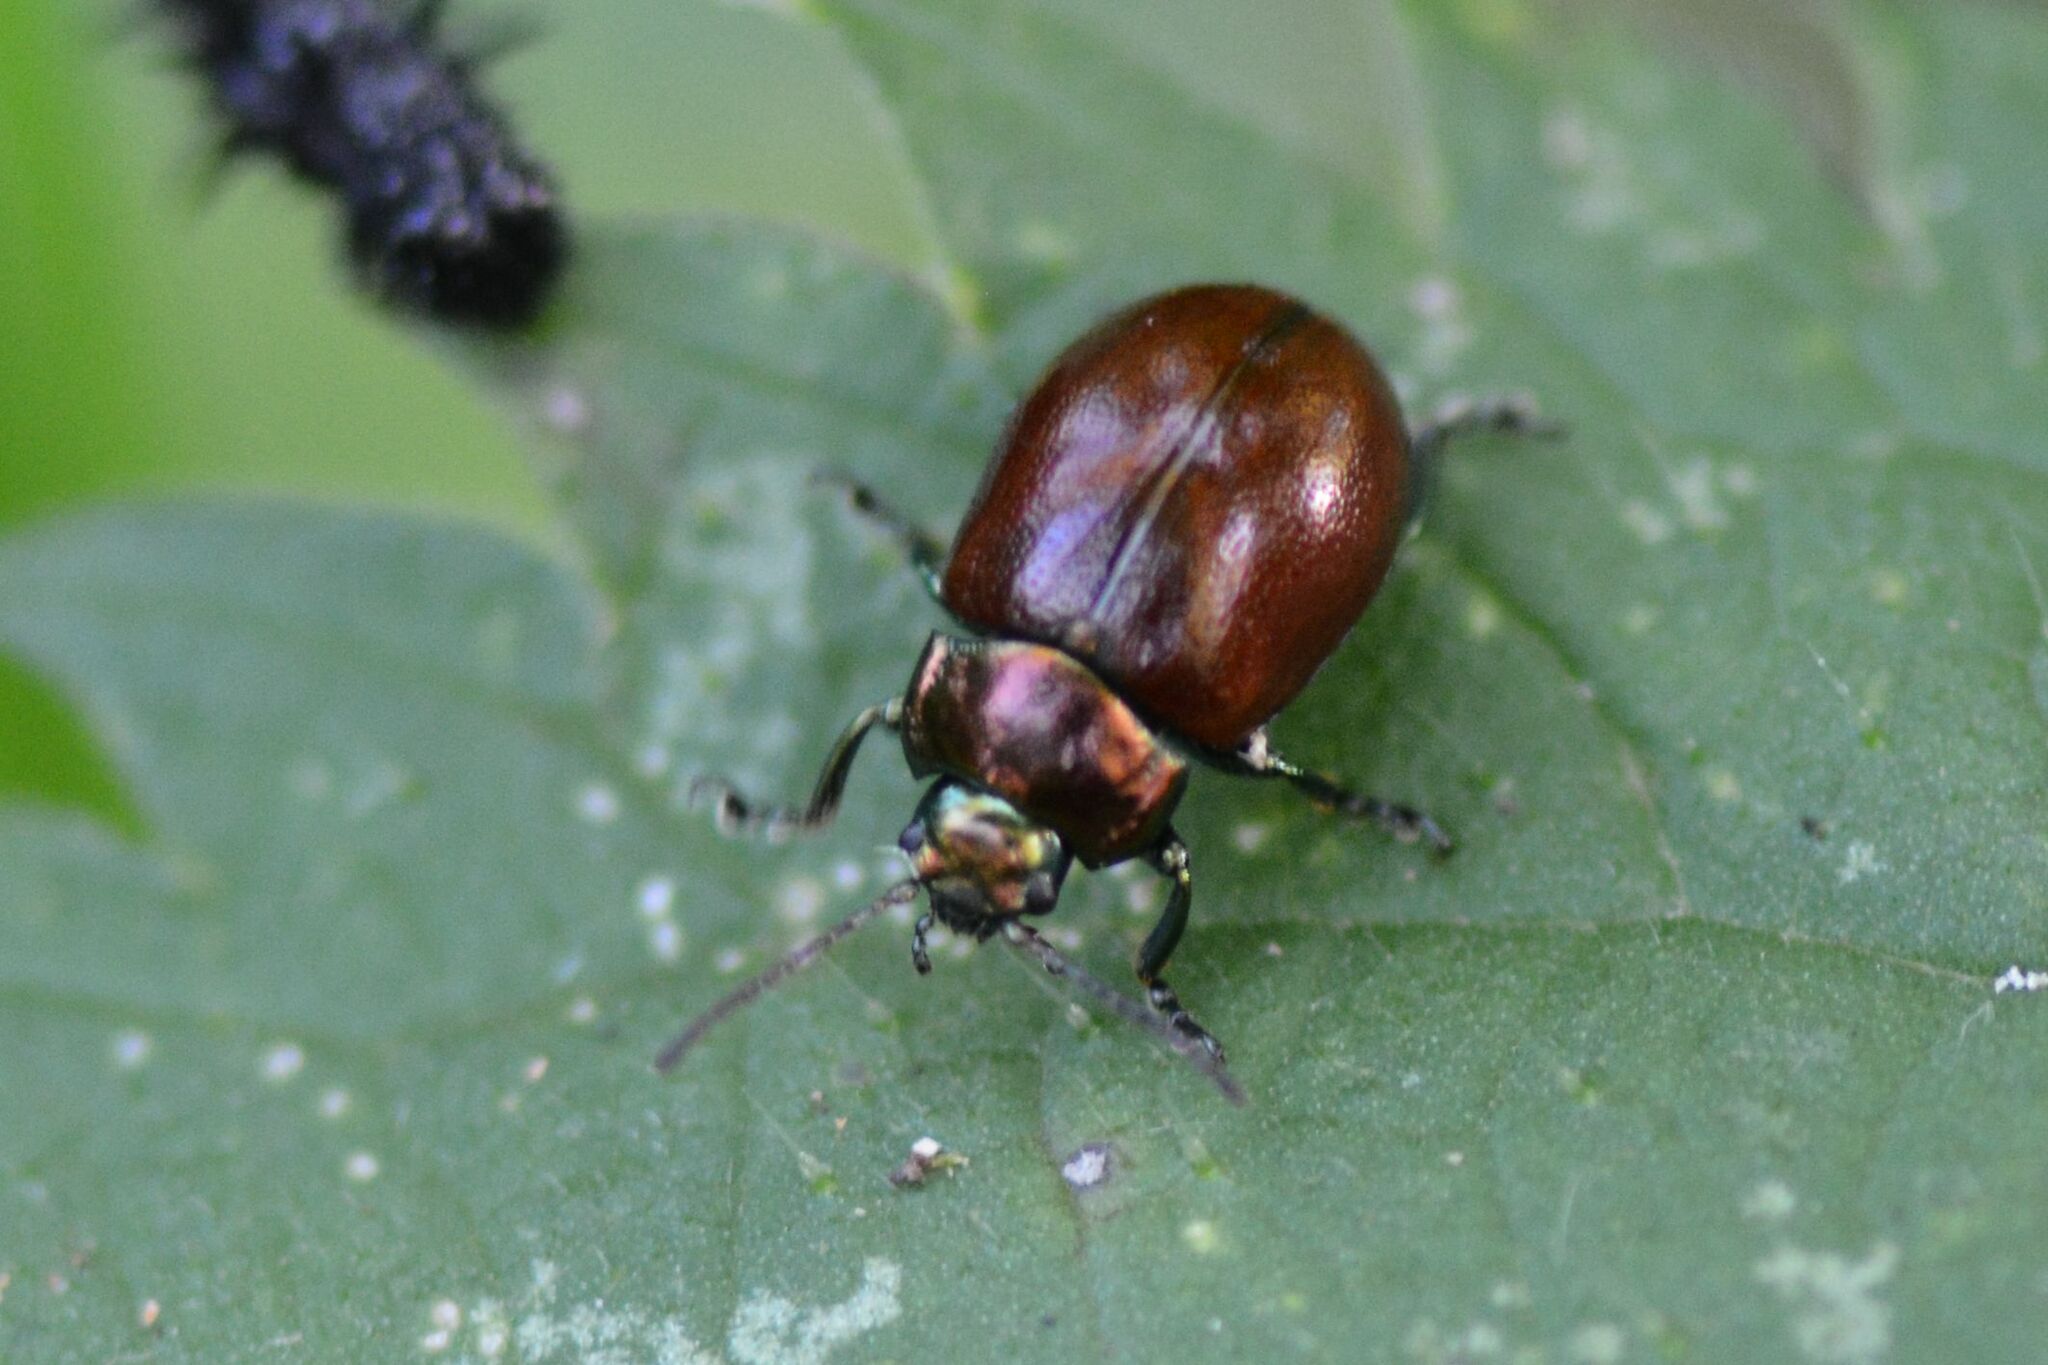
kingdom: Animalia
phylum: Arthropoda
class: Insecta
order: Coleoptera
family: Chrysomelidae
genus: Chrysomela
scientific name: Chrysomela polita
